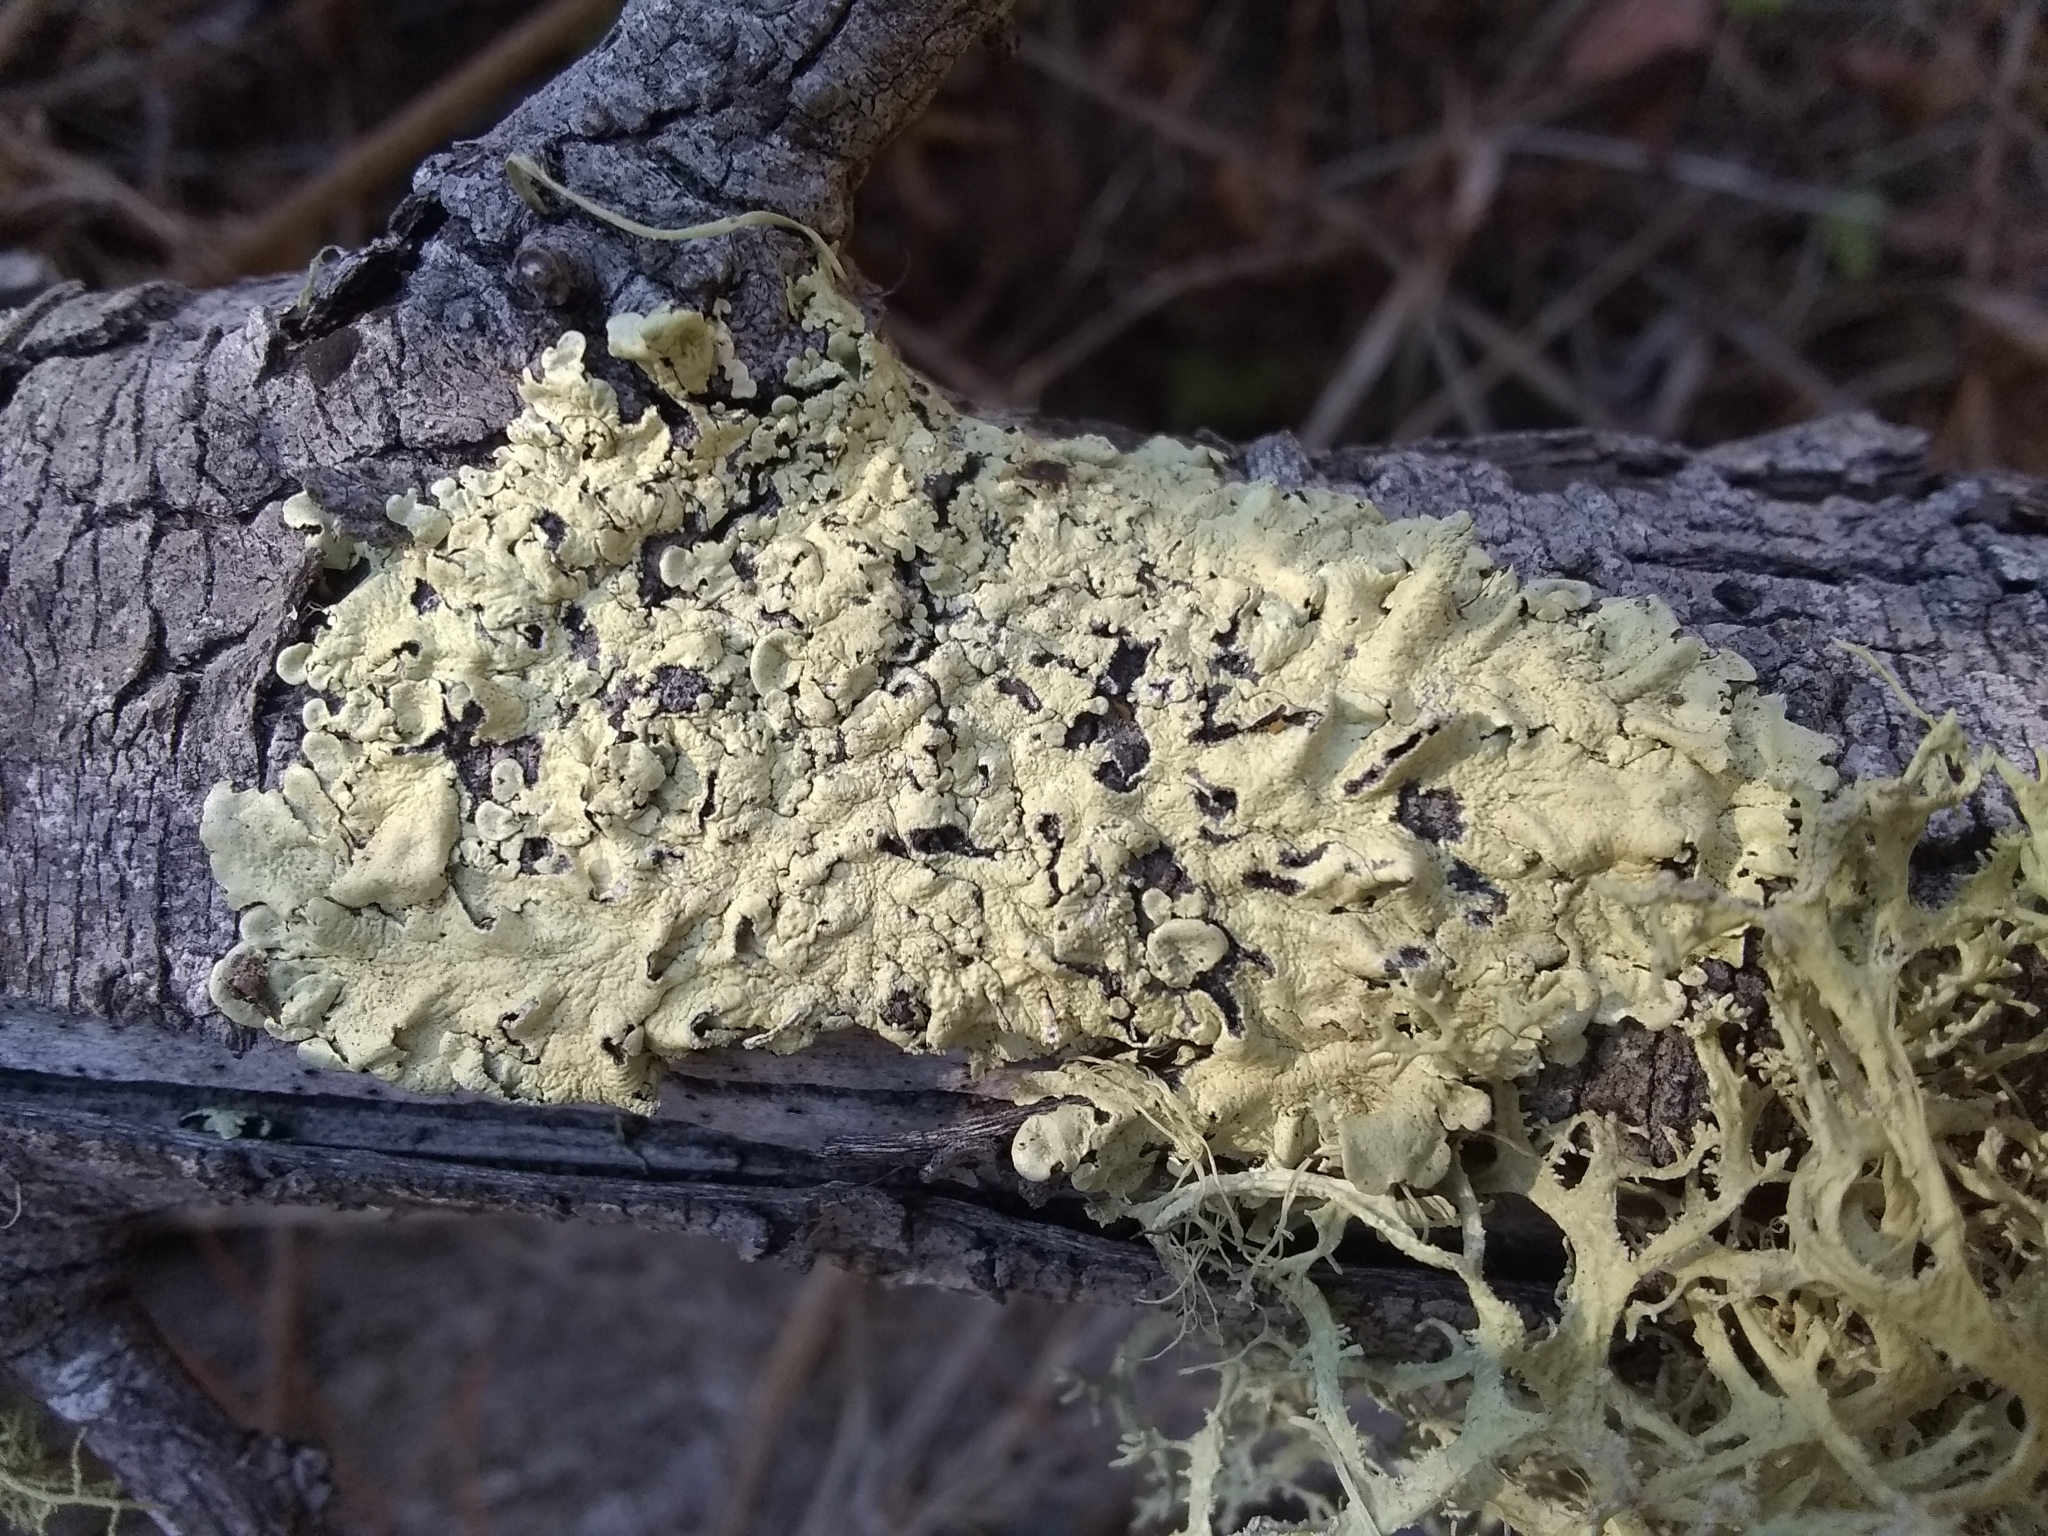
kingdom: Fungi
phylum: Ascomycota
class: Lecanoromycetes
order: Lecanorales
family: Parmeliaceae
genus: Flavoparmelia
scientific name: Flavoparmelia caperata
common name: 40-mile per hour lichen
